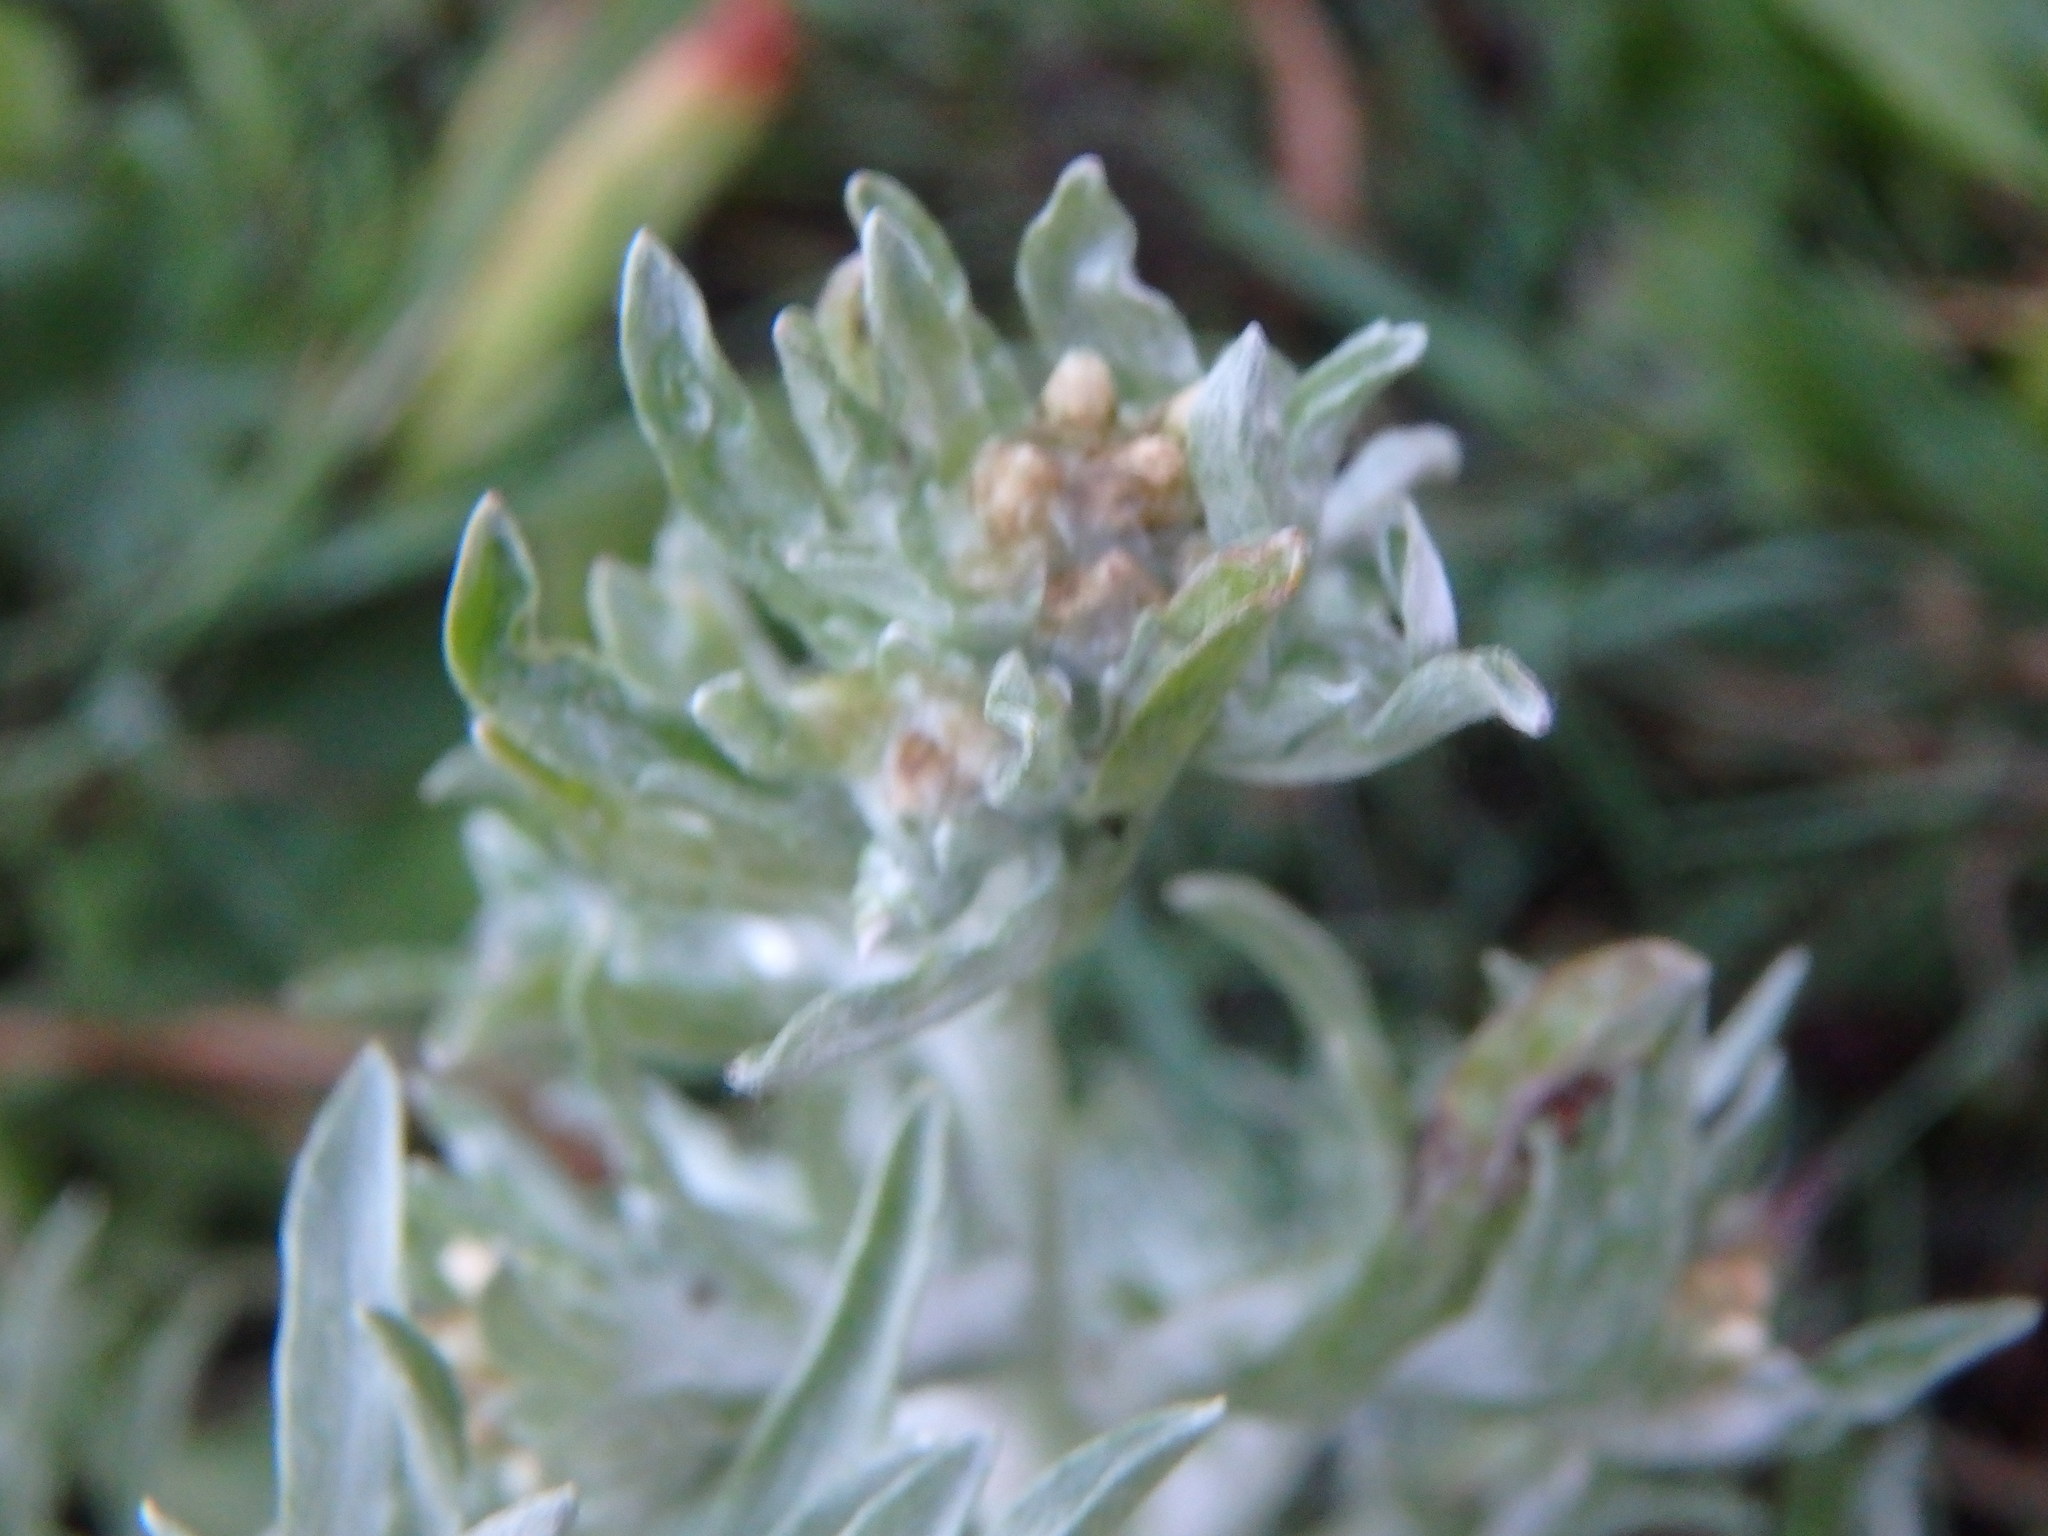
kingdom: Plantae
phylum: Tracheophyta
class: Magnoliopsida
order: Asterales
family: Asteraceae
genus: Gnaphalium
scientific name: Gnaphalium uliginosum
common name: Marsh cudweed
